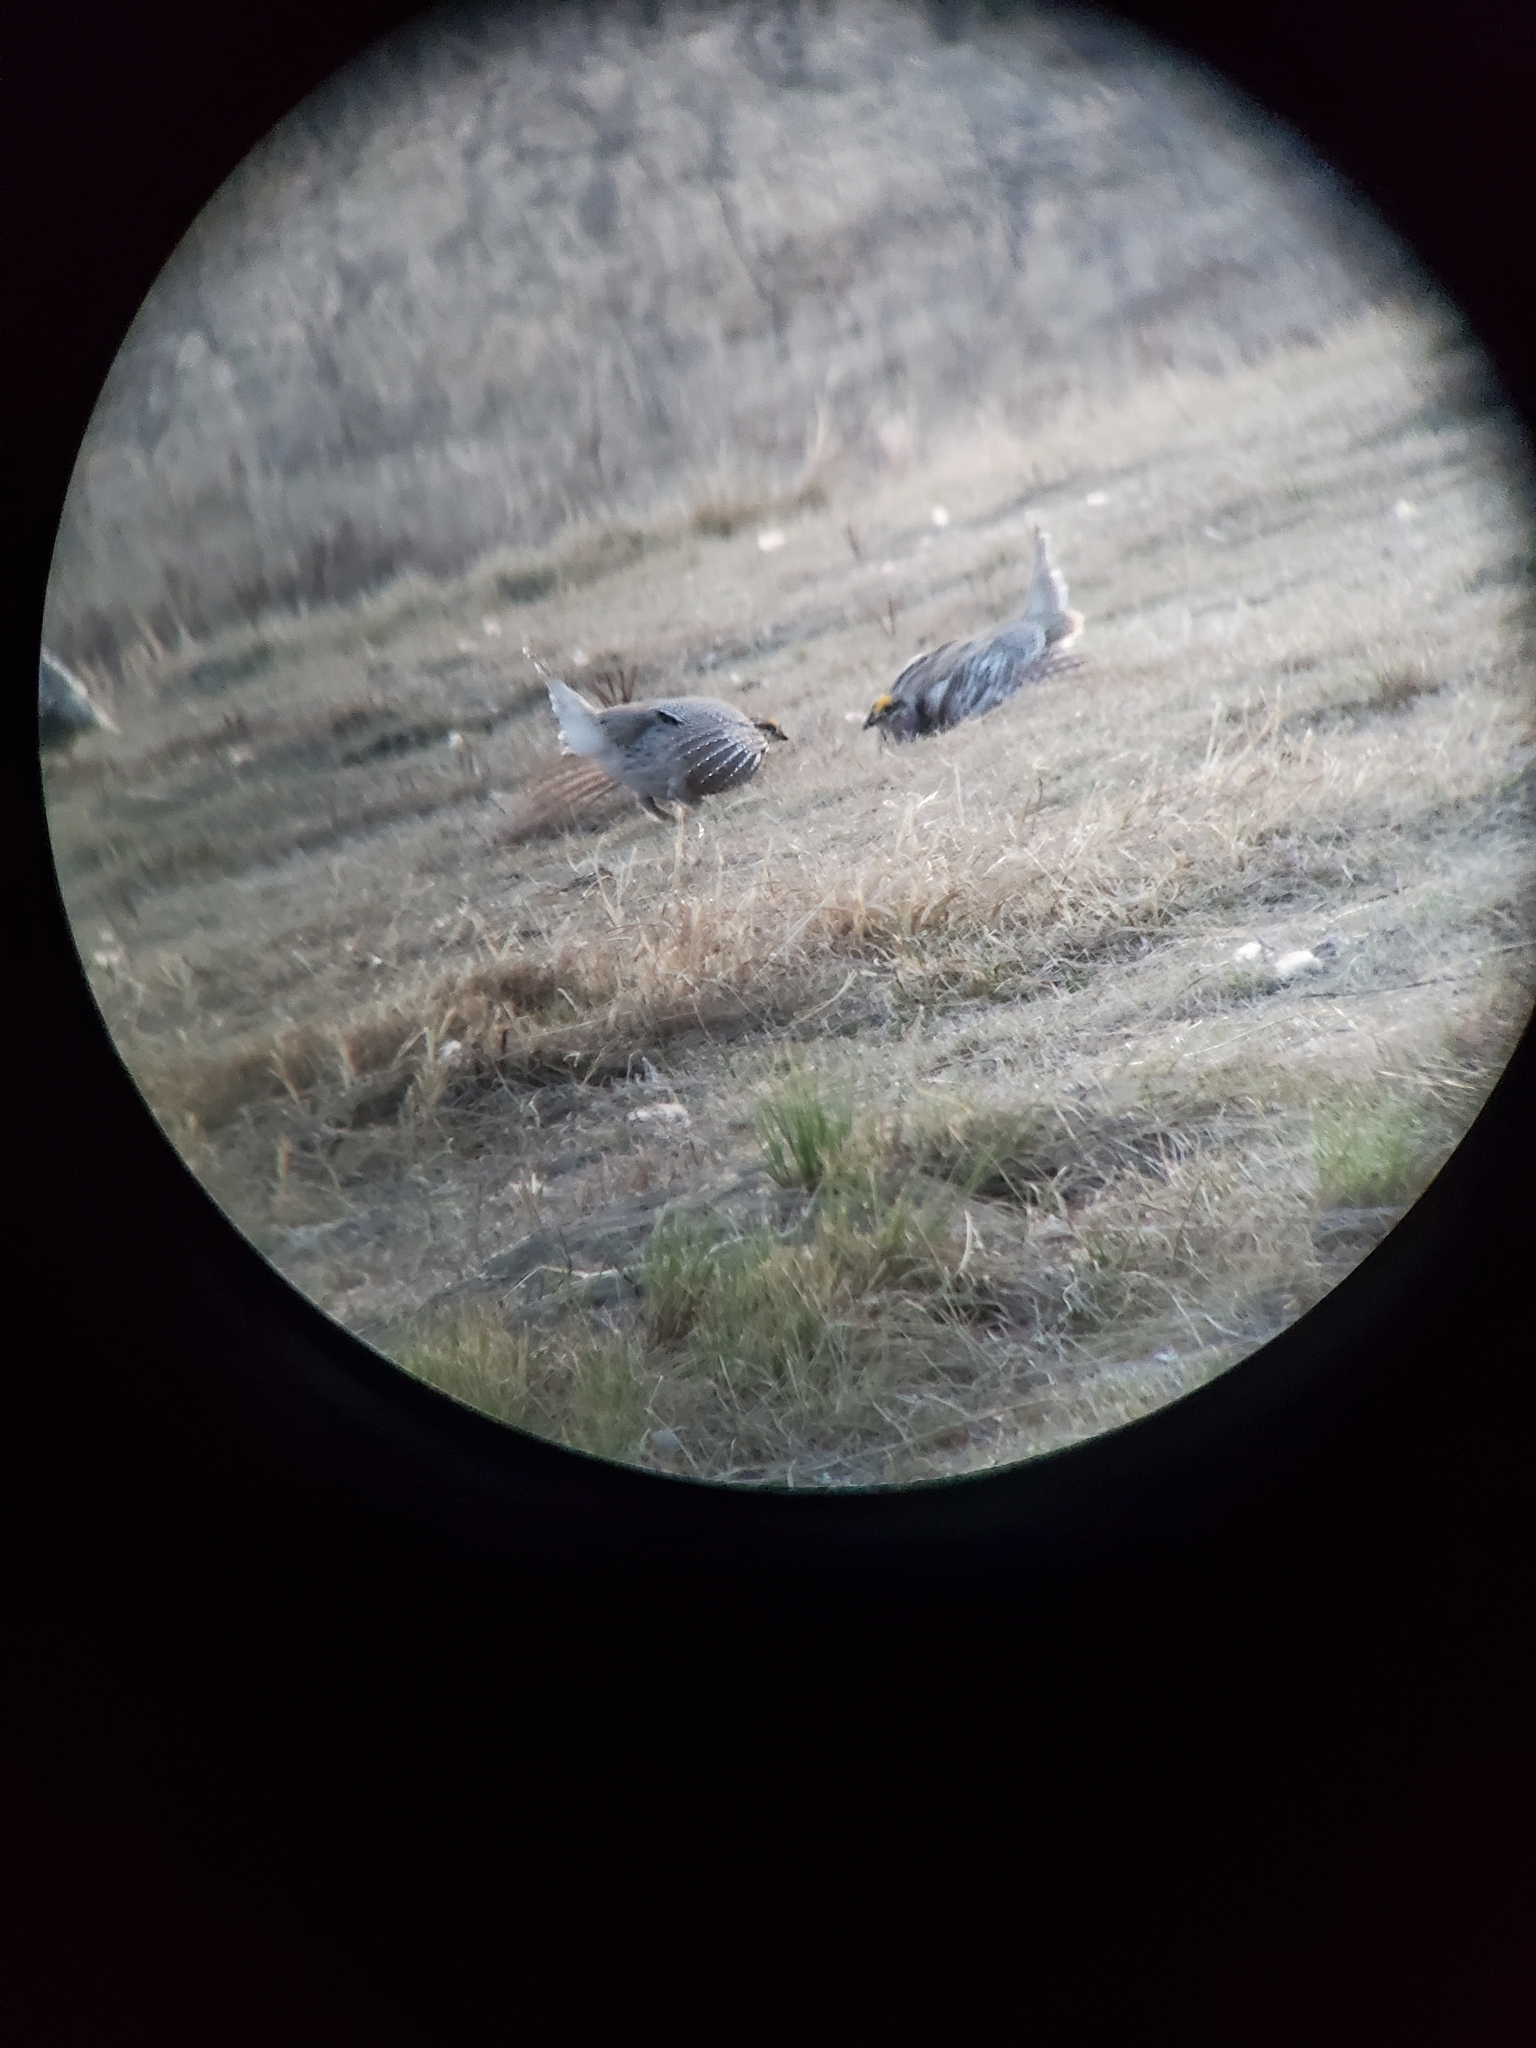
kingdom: Animalia
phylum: Chordata
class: Aves
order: Galliformes
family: Phasianidae
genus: Tympanuchus
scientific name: Tympanuchus phasianellus
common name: Sharp-tailed grouse
